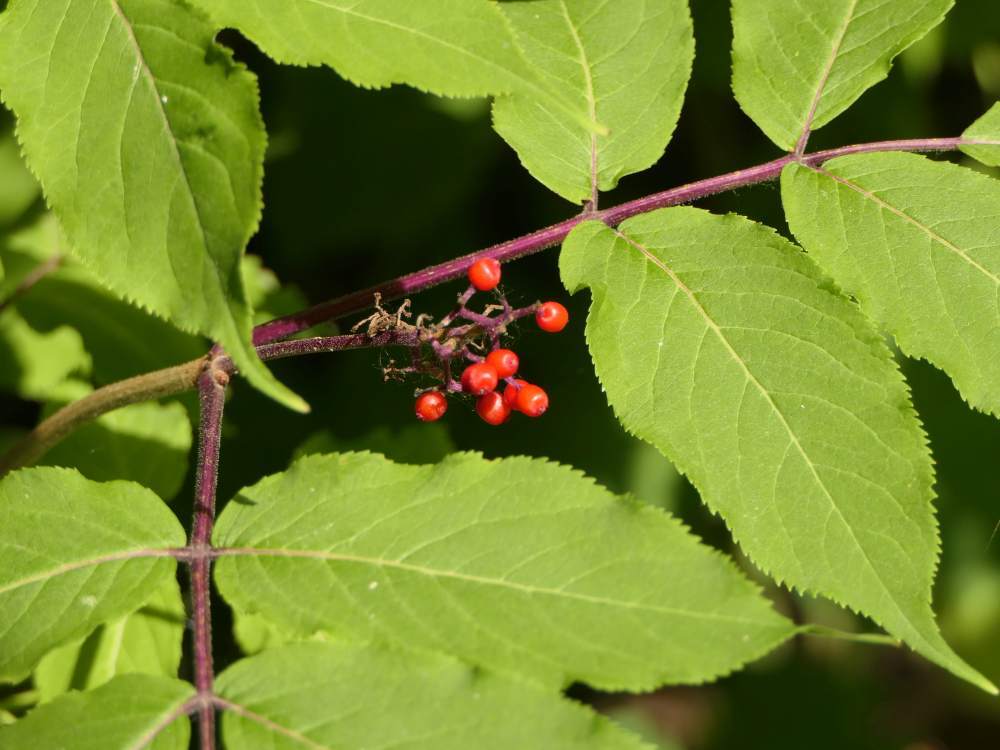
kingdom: Plantae
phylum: Tracheophyta
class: Magnoliopsida
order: Dipsacales
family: Viburnaceae
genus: Sambucus
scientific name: Sambucus racemosa
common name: Red-berried elder
